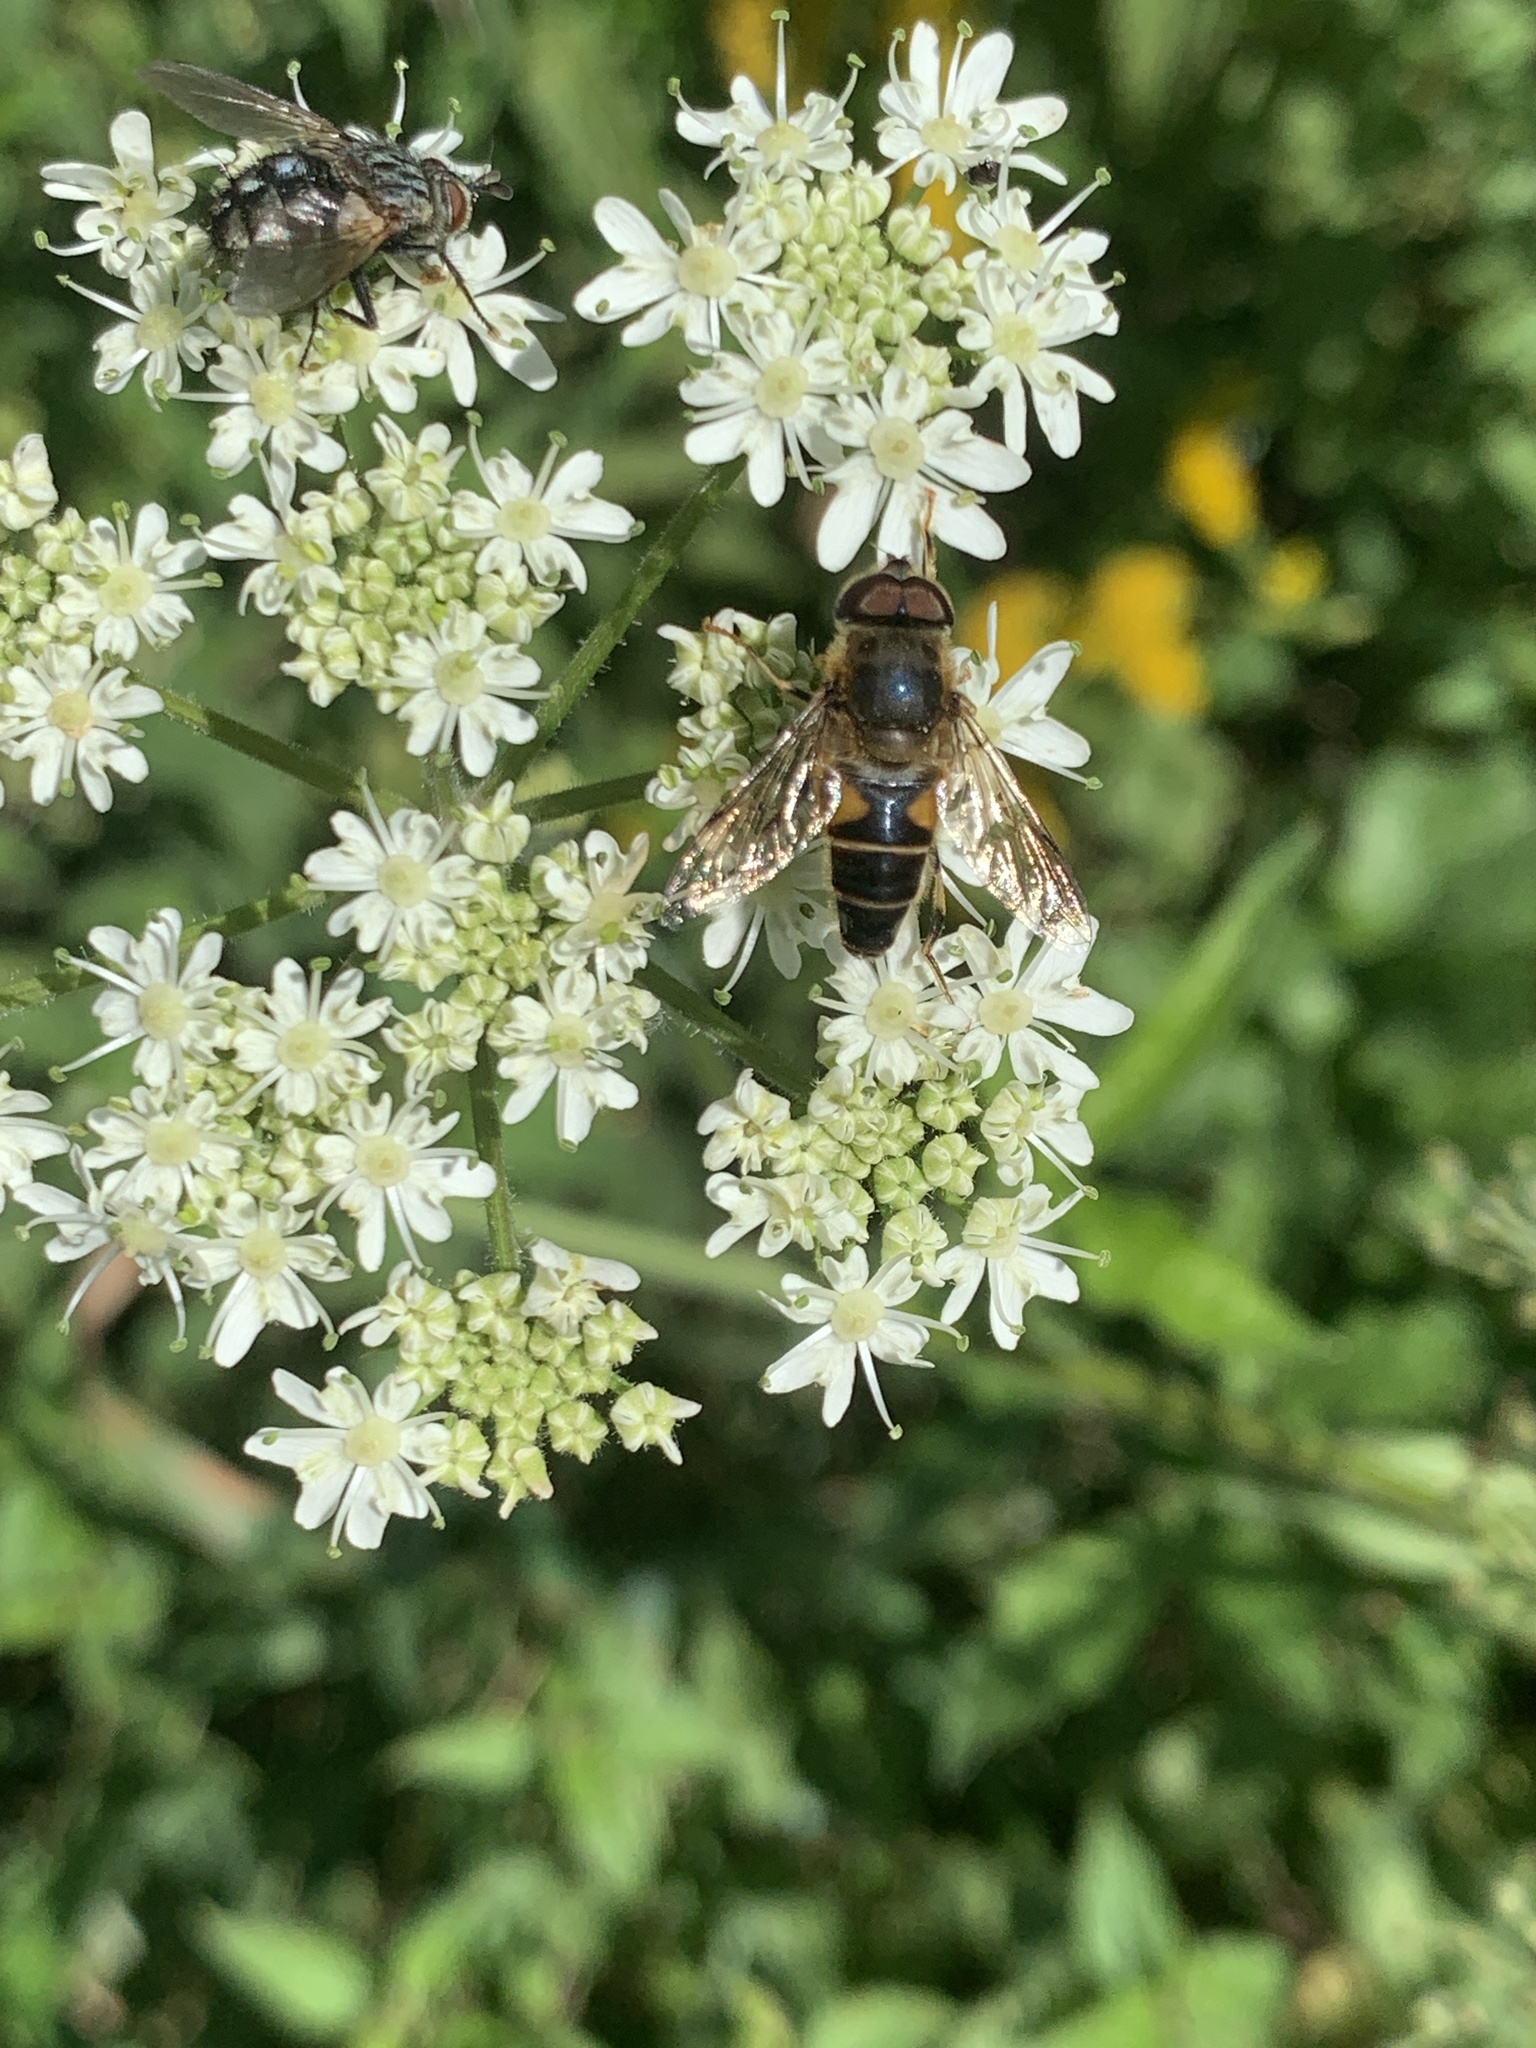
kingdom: Animalia
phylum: Arthropoda
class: Insecta
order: Diptera
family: Syrphidae
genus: Eristalis
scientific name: Eristalis pertinax
